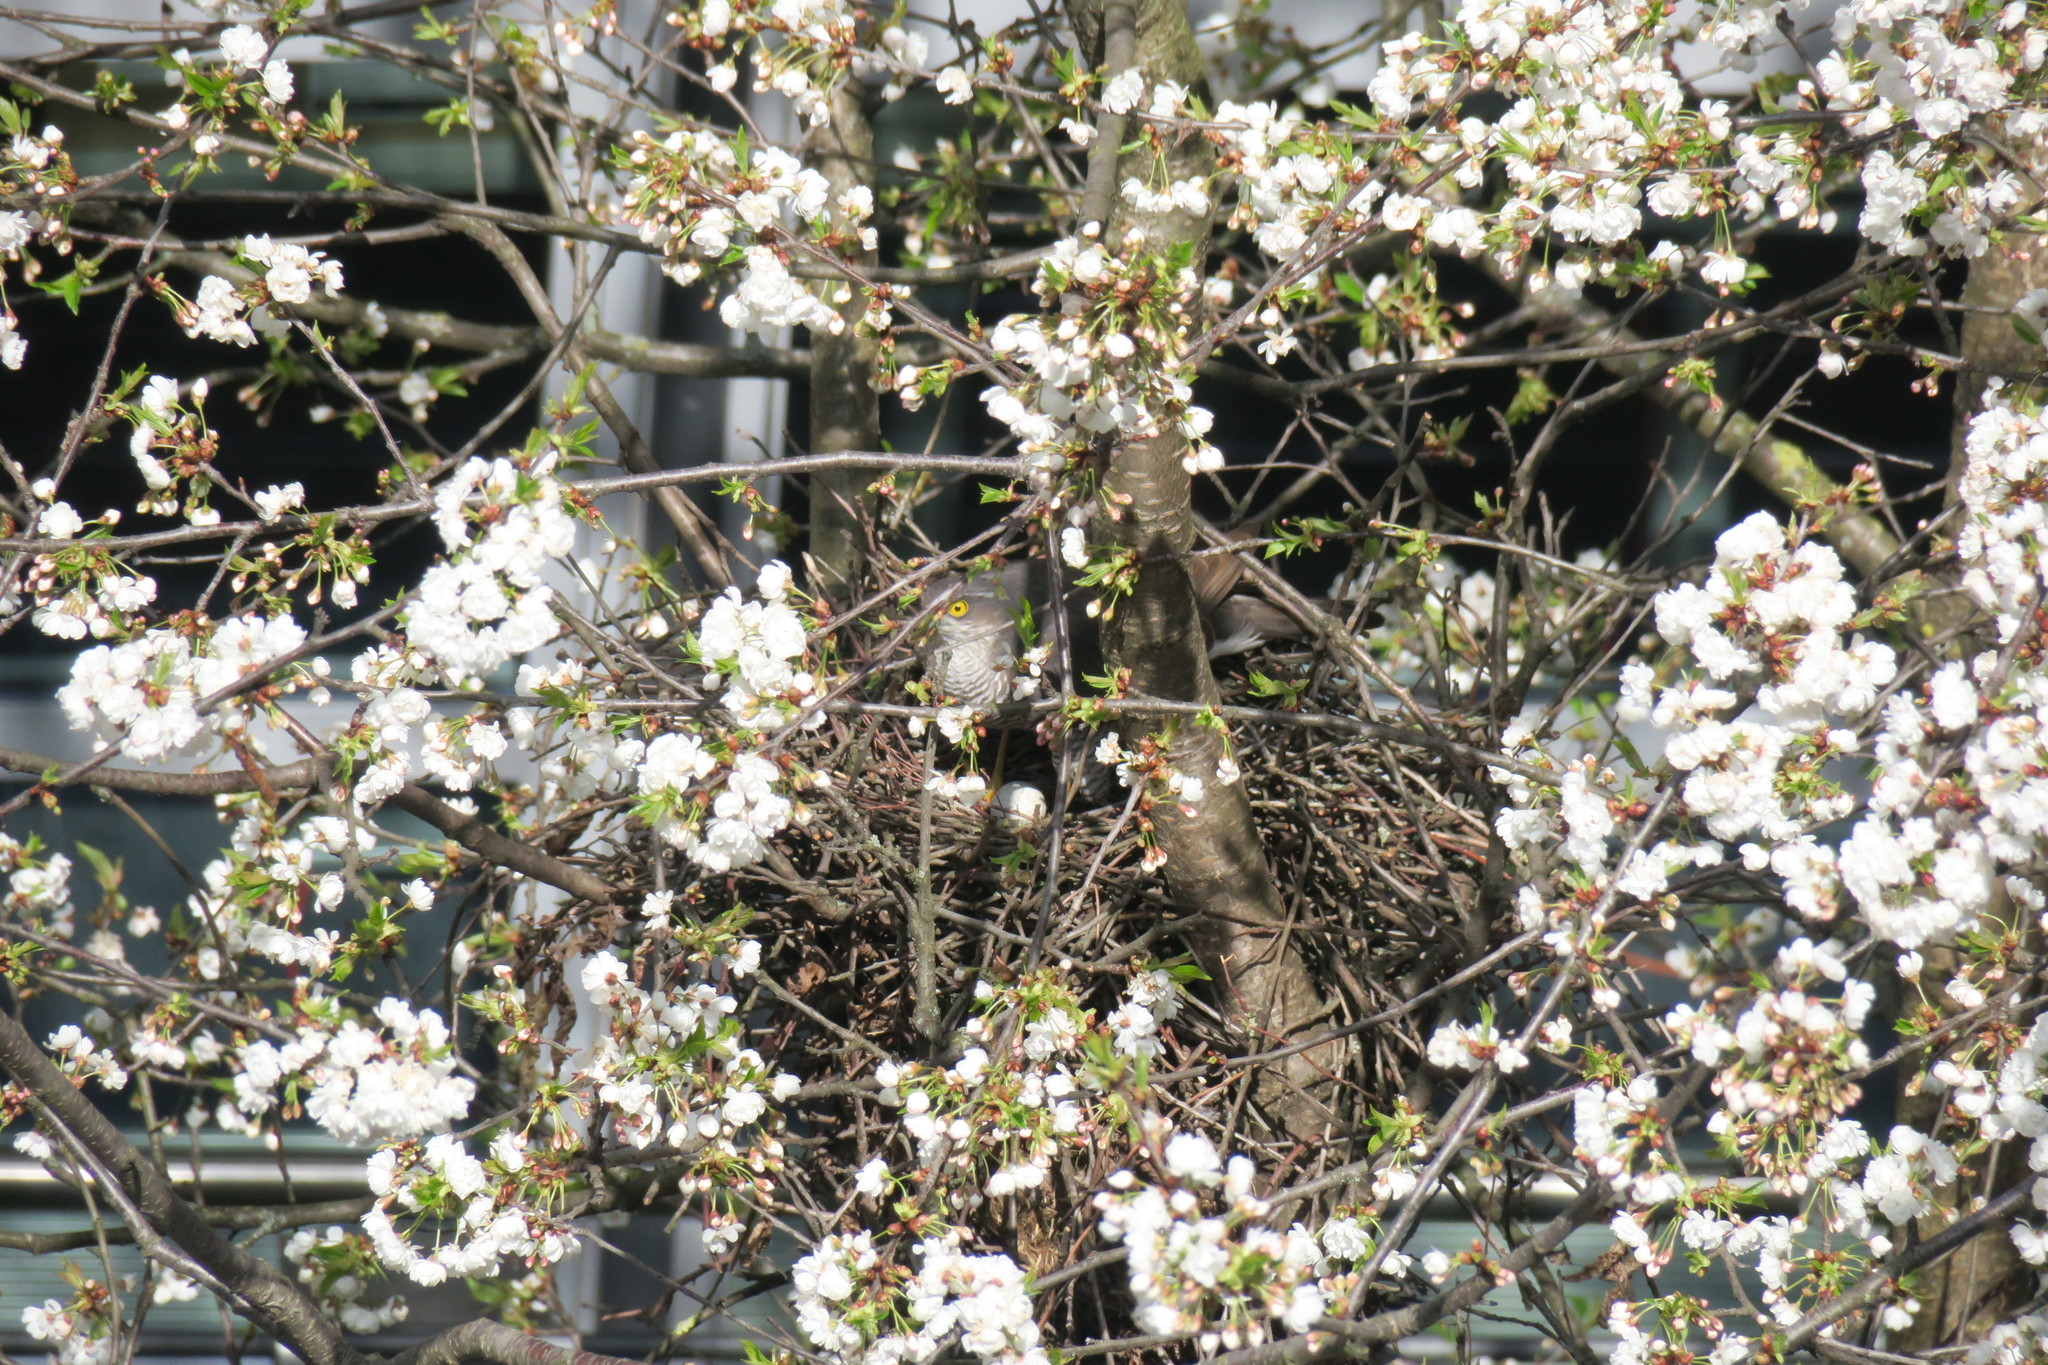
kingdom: Animalia
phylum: Chordata
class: Aves
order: Accipitriformes
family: Accipitridae
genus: Accipiter
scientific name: Accipiter nisus
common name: Eurasian sparrowhawk
